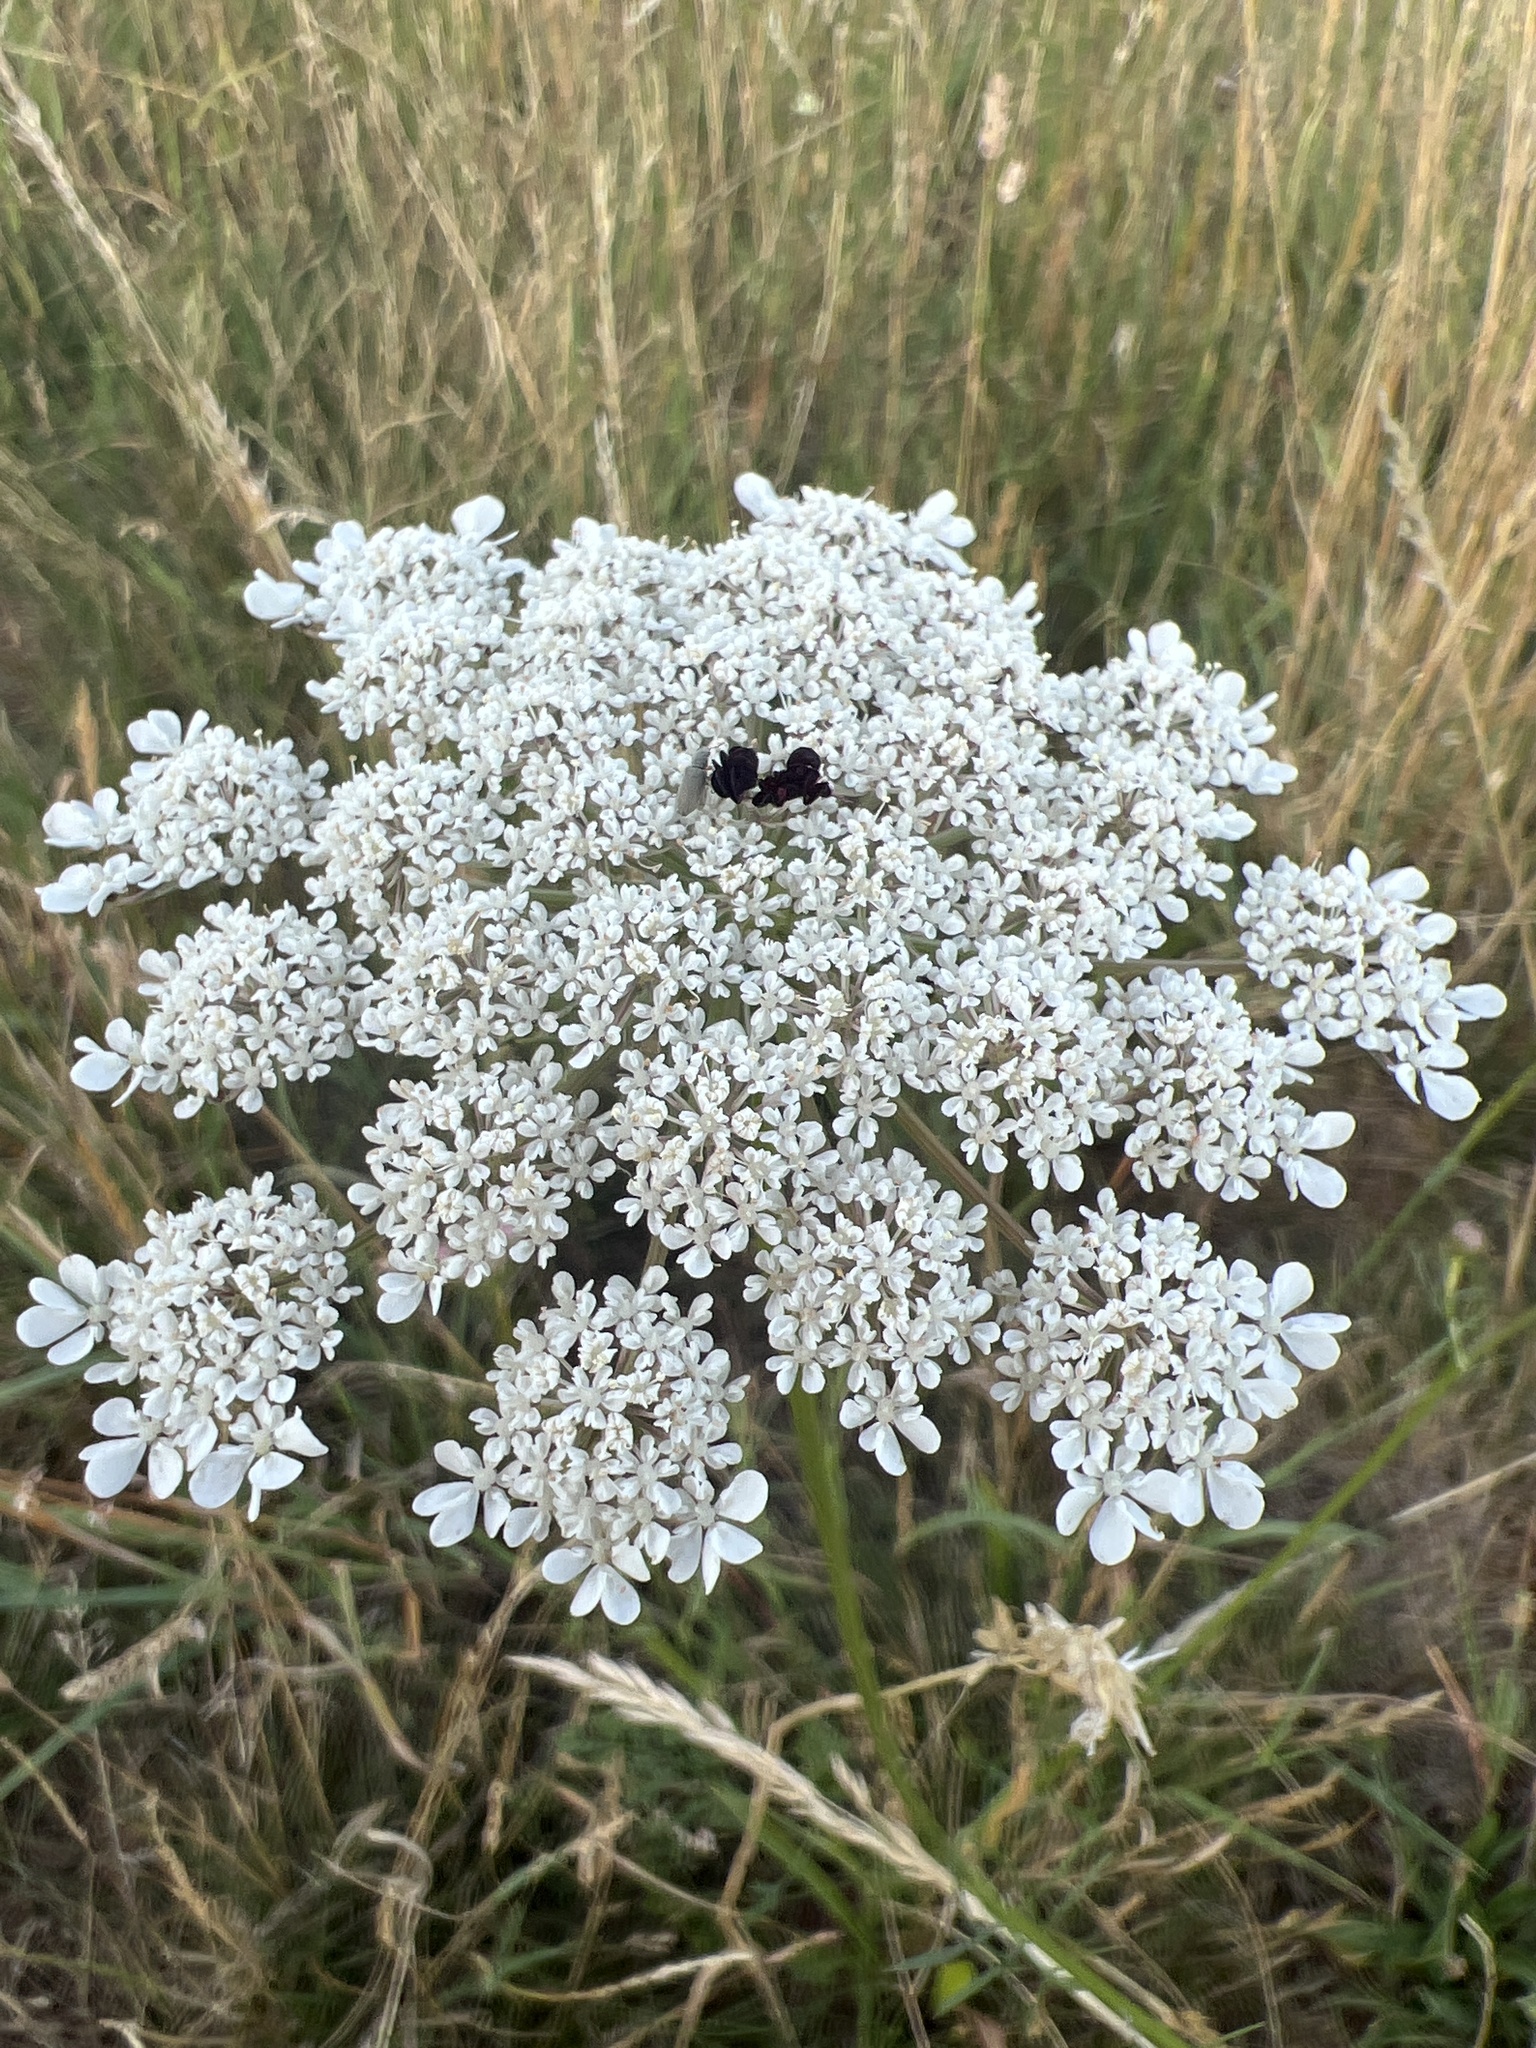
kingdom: Plantae
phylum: Tracheophyta
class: Magnoliopsida
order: Apiales
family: Apiaceae
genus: Daucus
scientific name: Daucus carota
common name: Wild carrot
